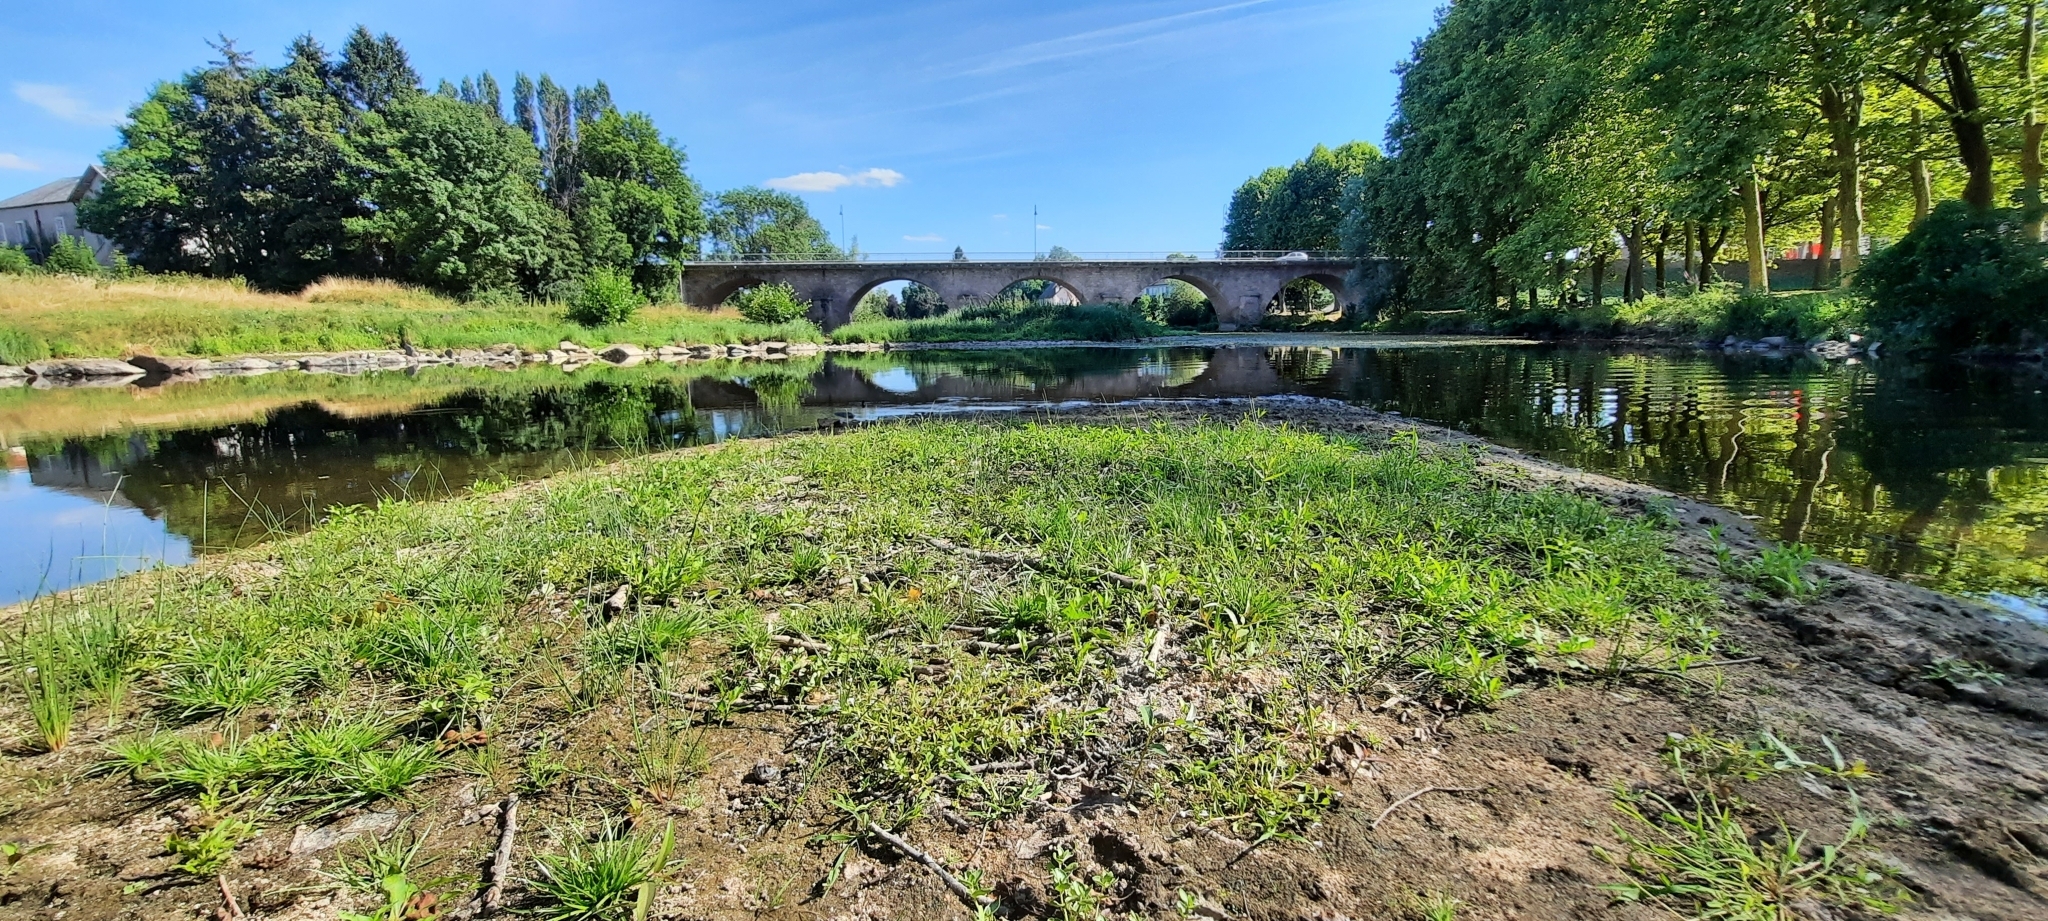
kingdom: Plantae
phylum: Tracheophyta
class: Magnoliopsida
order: Lamiales
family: Linderniaceae
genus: Lindernia
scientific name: Lindernia dubia
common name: Annual false pimpernel
